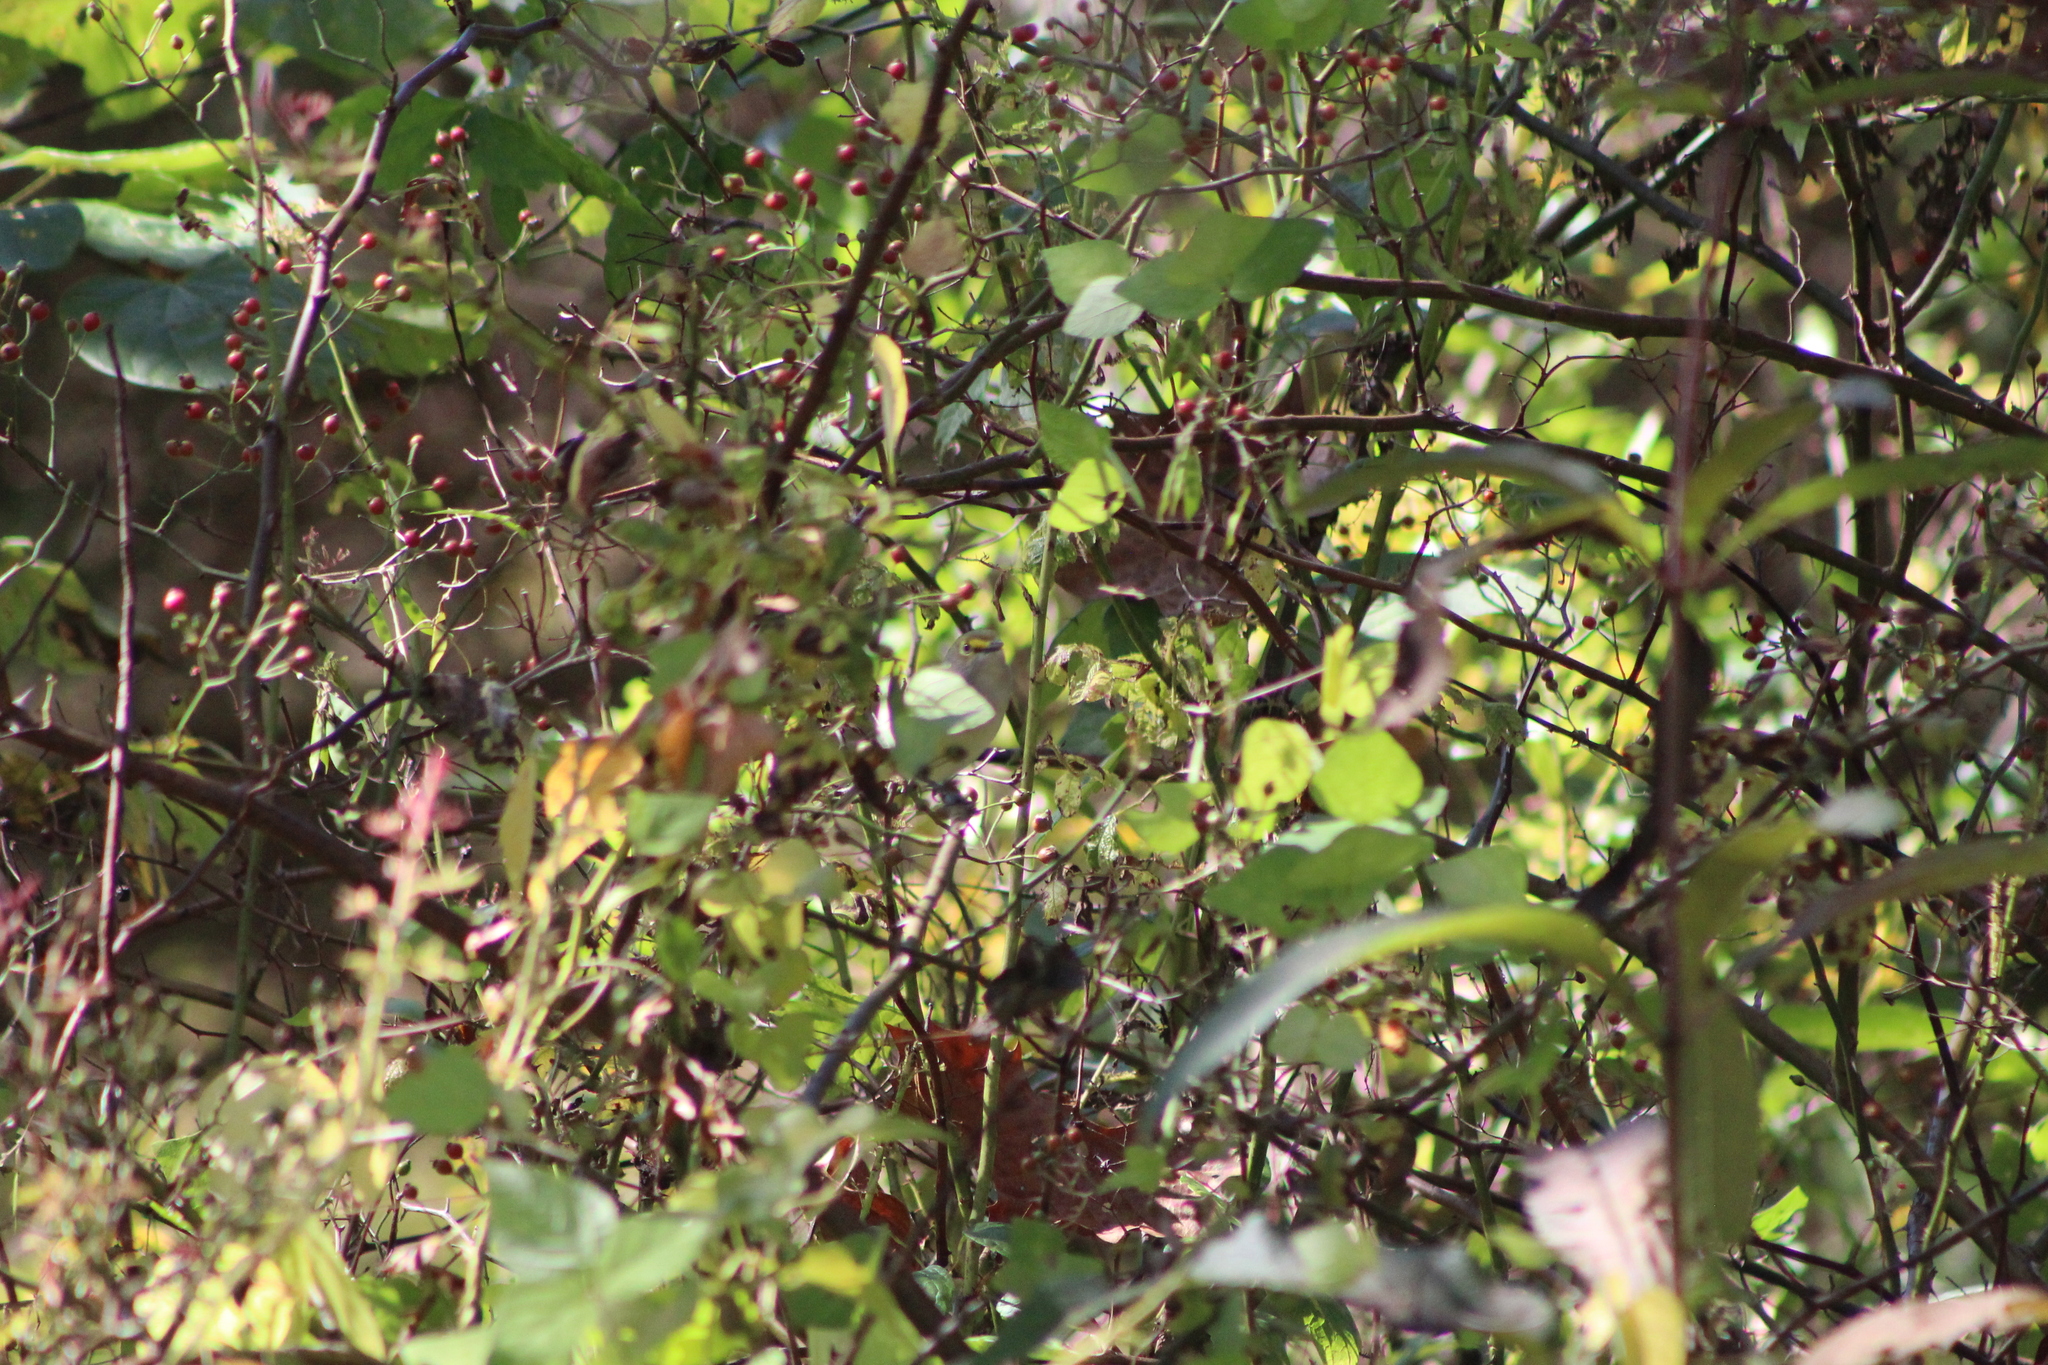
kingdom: Animalia
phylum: Chordata
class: Aves
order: Passeriformes
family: Vireonidae
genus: Vireo
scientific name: Vireo griseus
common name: White-eyed vireo
